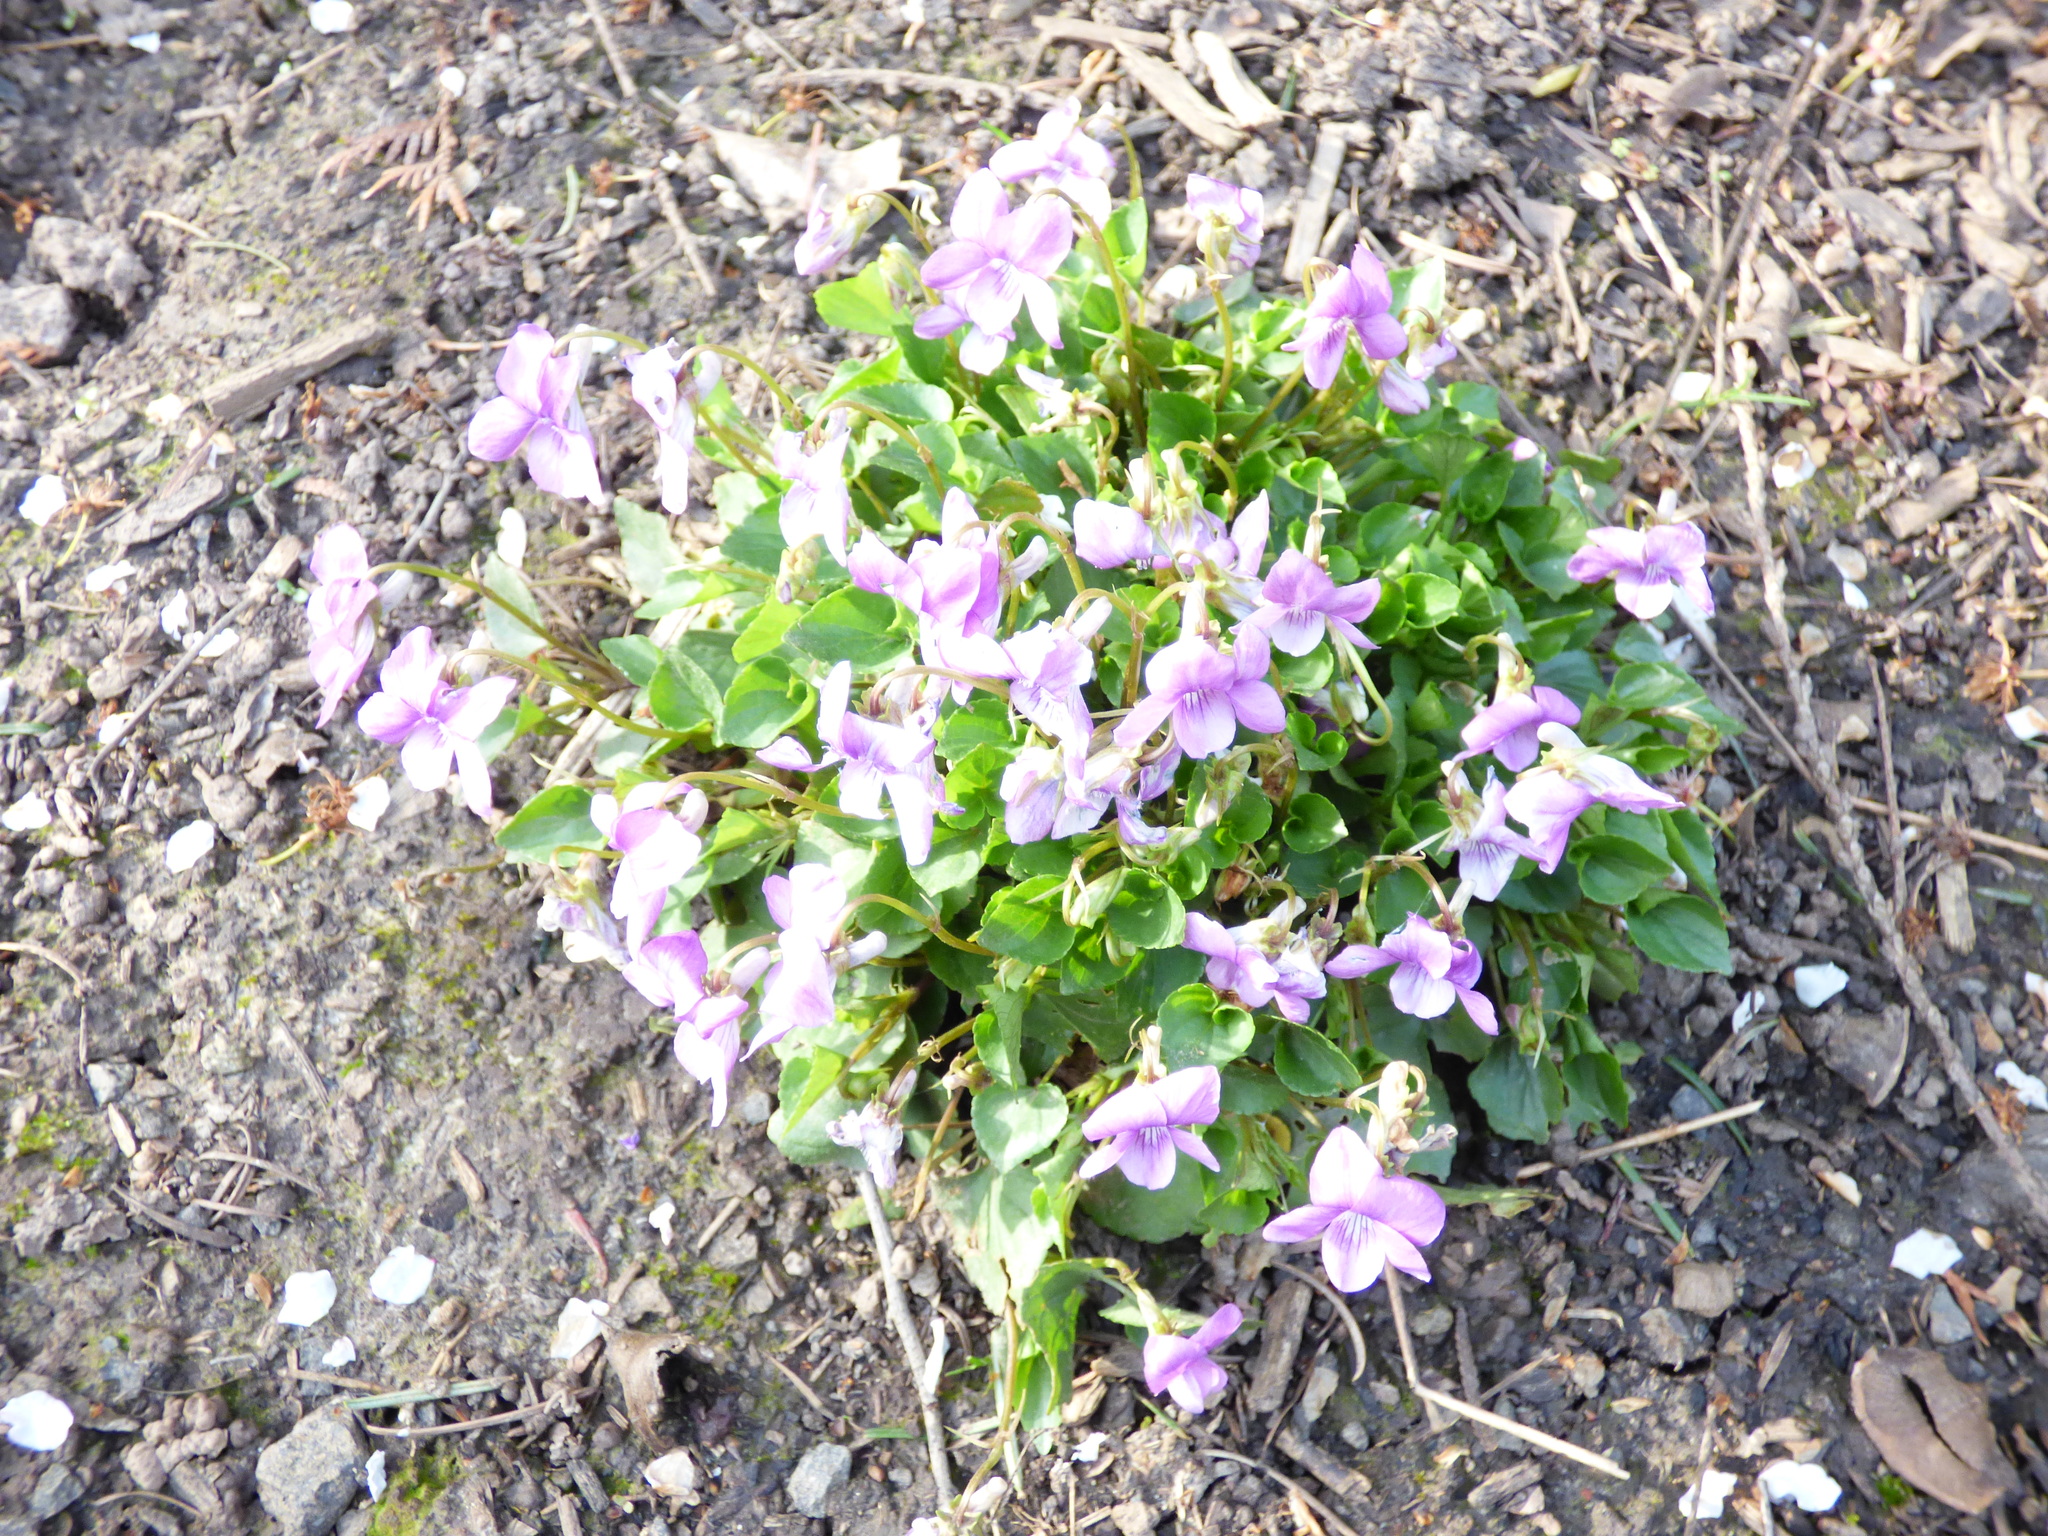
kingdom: Plantae
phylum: Tracheophyta
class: Magnoliopsida
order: Malpighiales
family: Violaceae
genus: Viola
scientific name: Viola riviniana
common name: Common dog-violet
